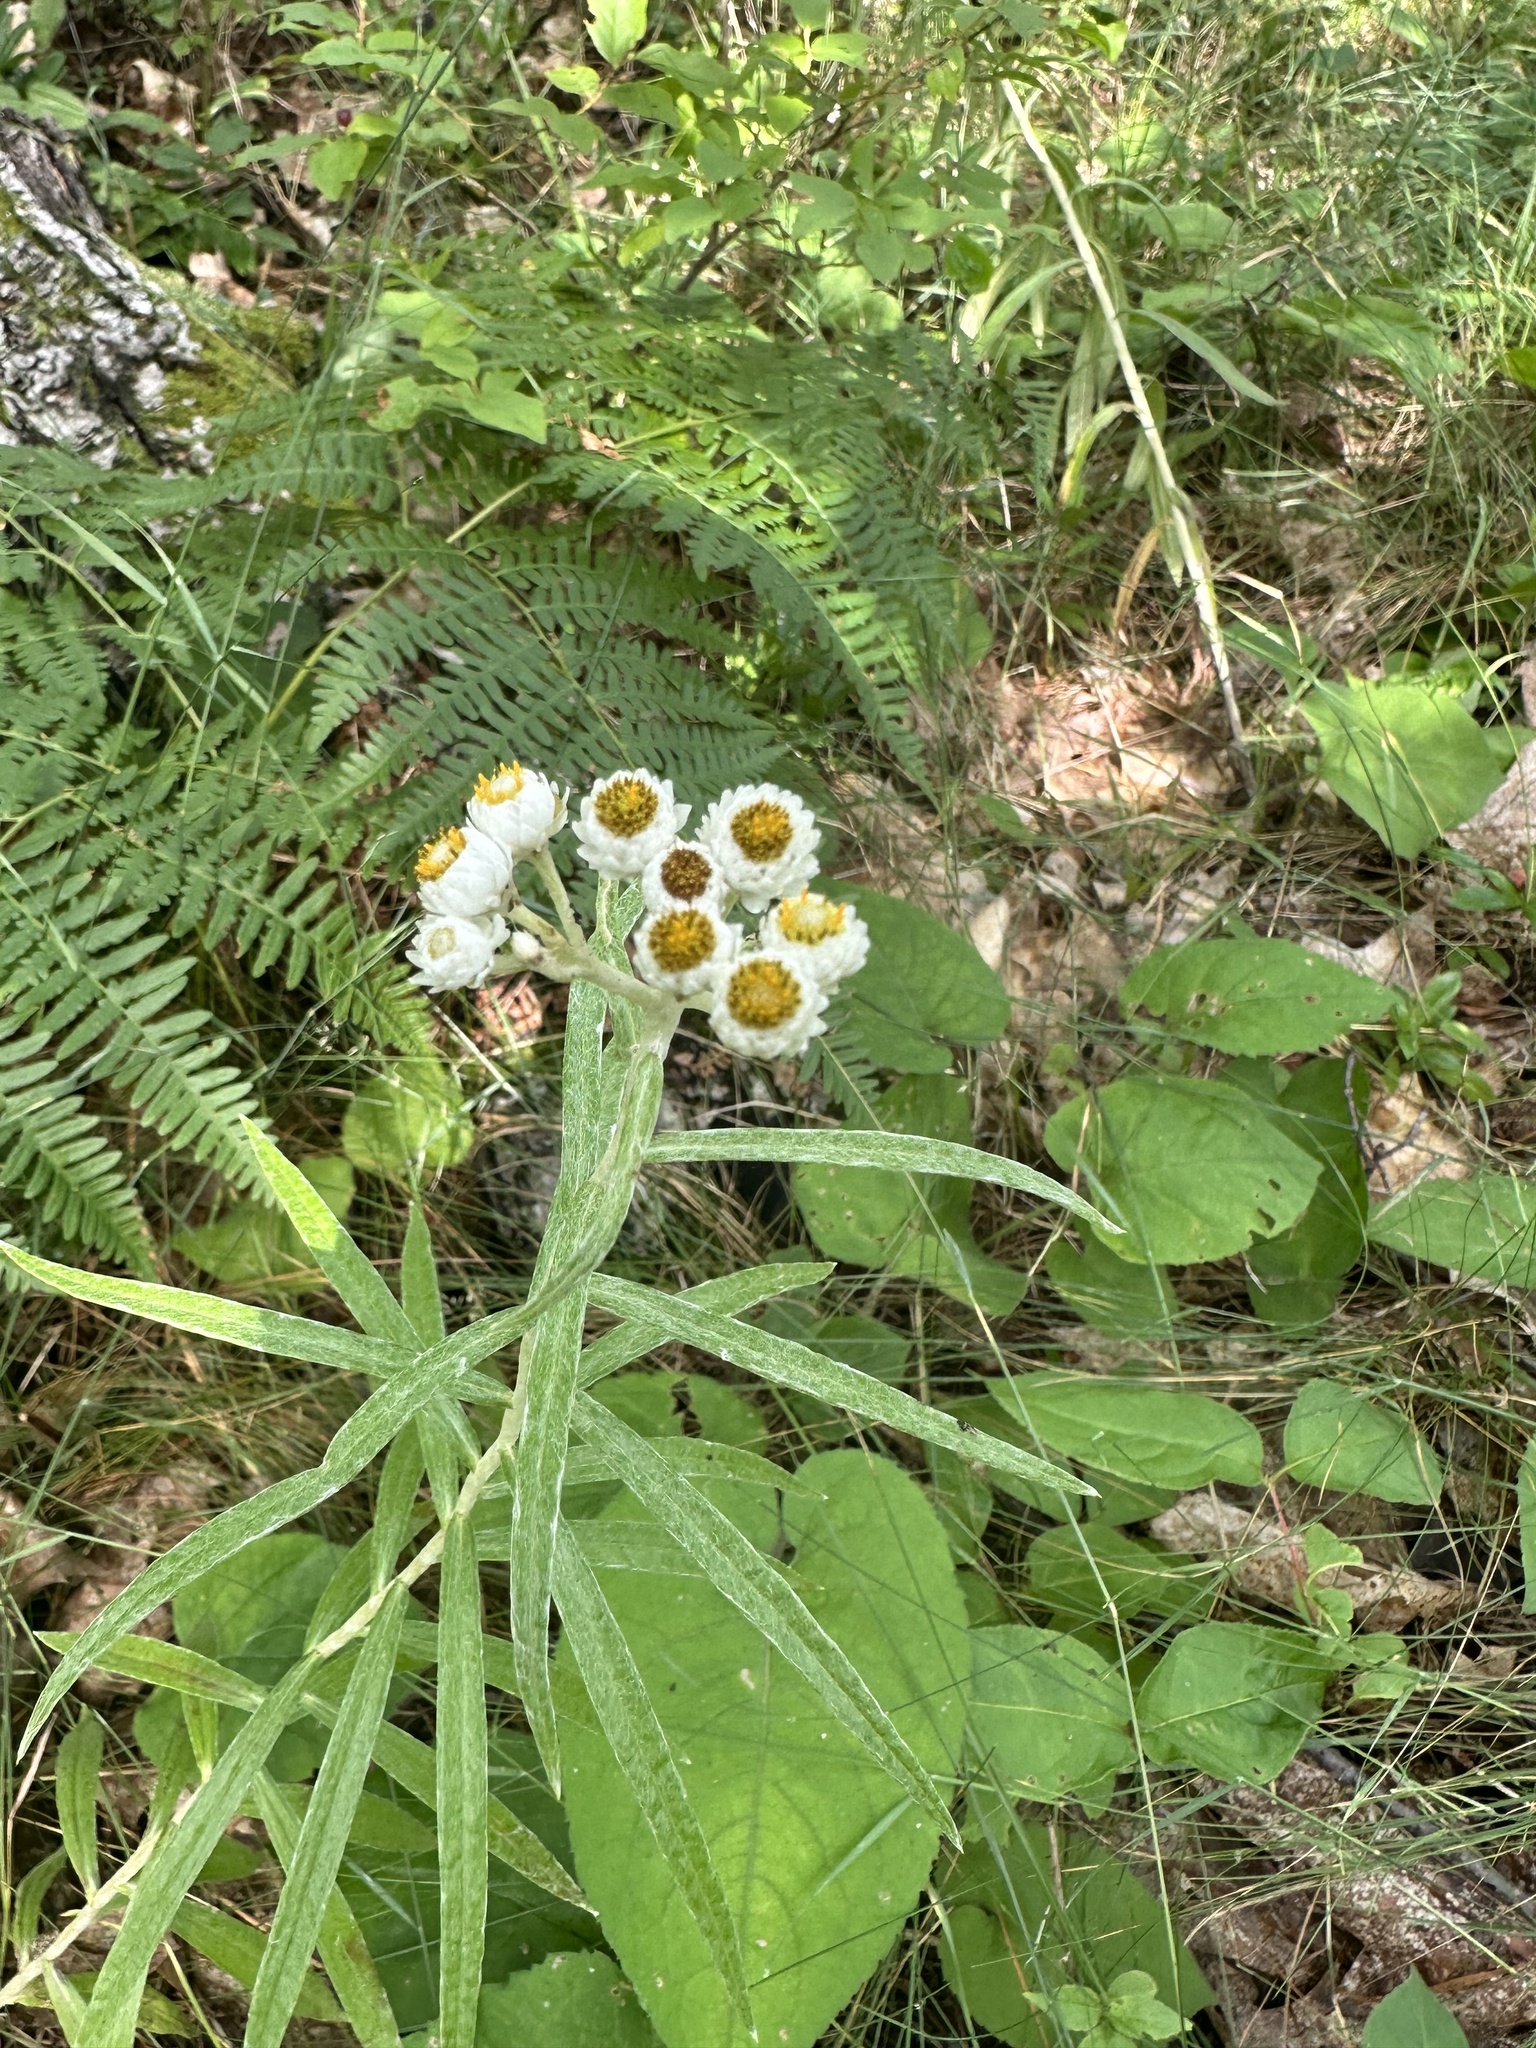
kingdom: Plantae
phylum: Tracheophyta
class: Magnoliopsida
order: Asterales
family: Asteraceae
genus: Anaphalis
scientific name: Anaphalis margaritacea
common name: Pearly everlasting
